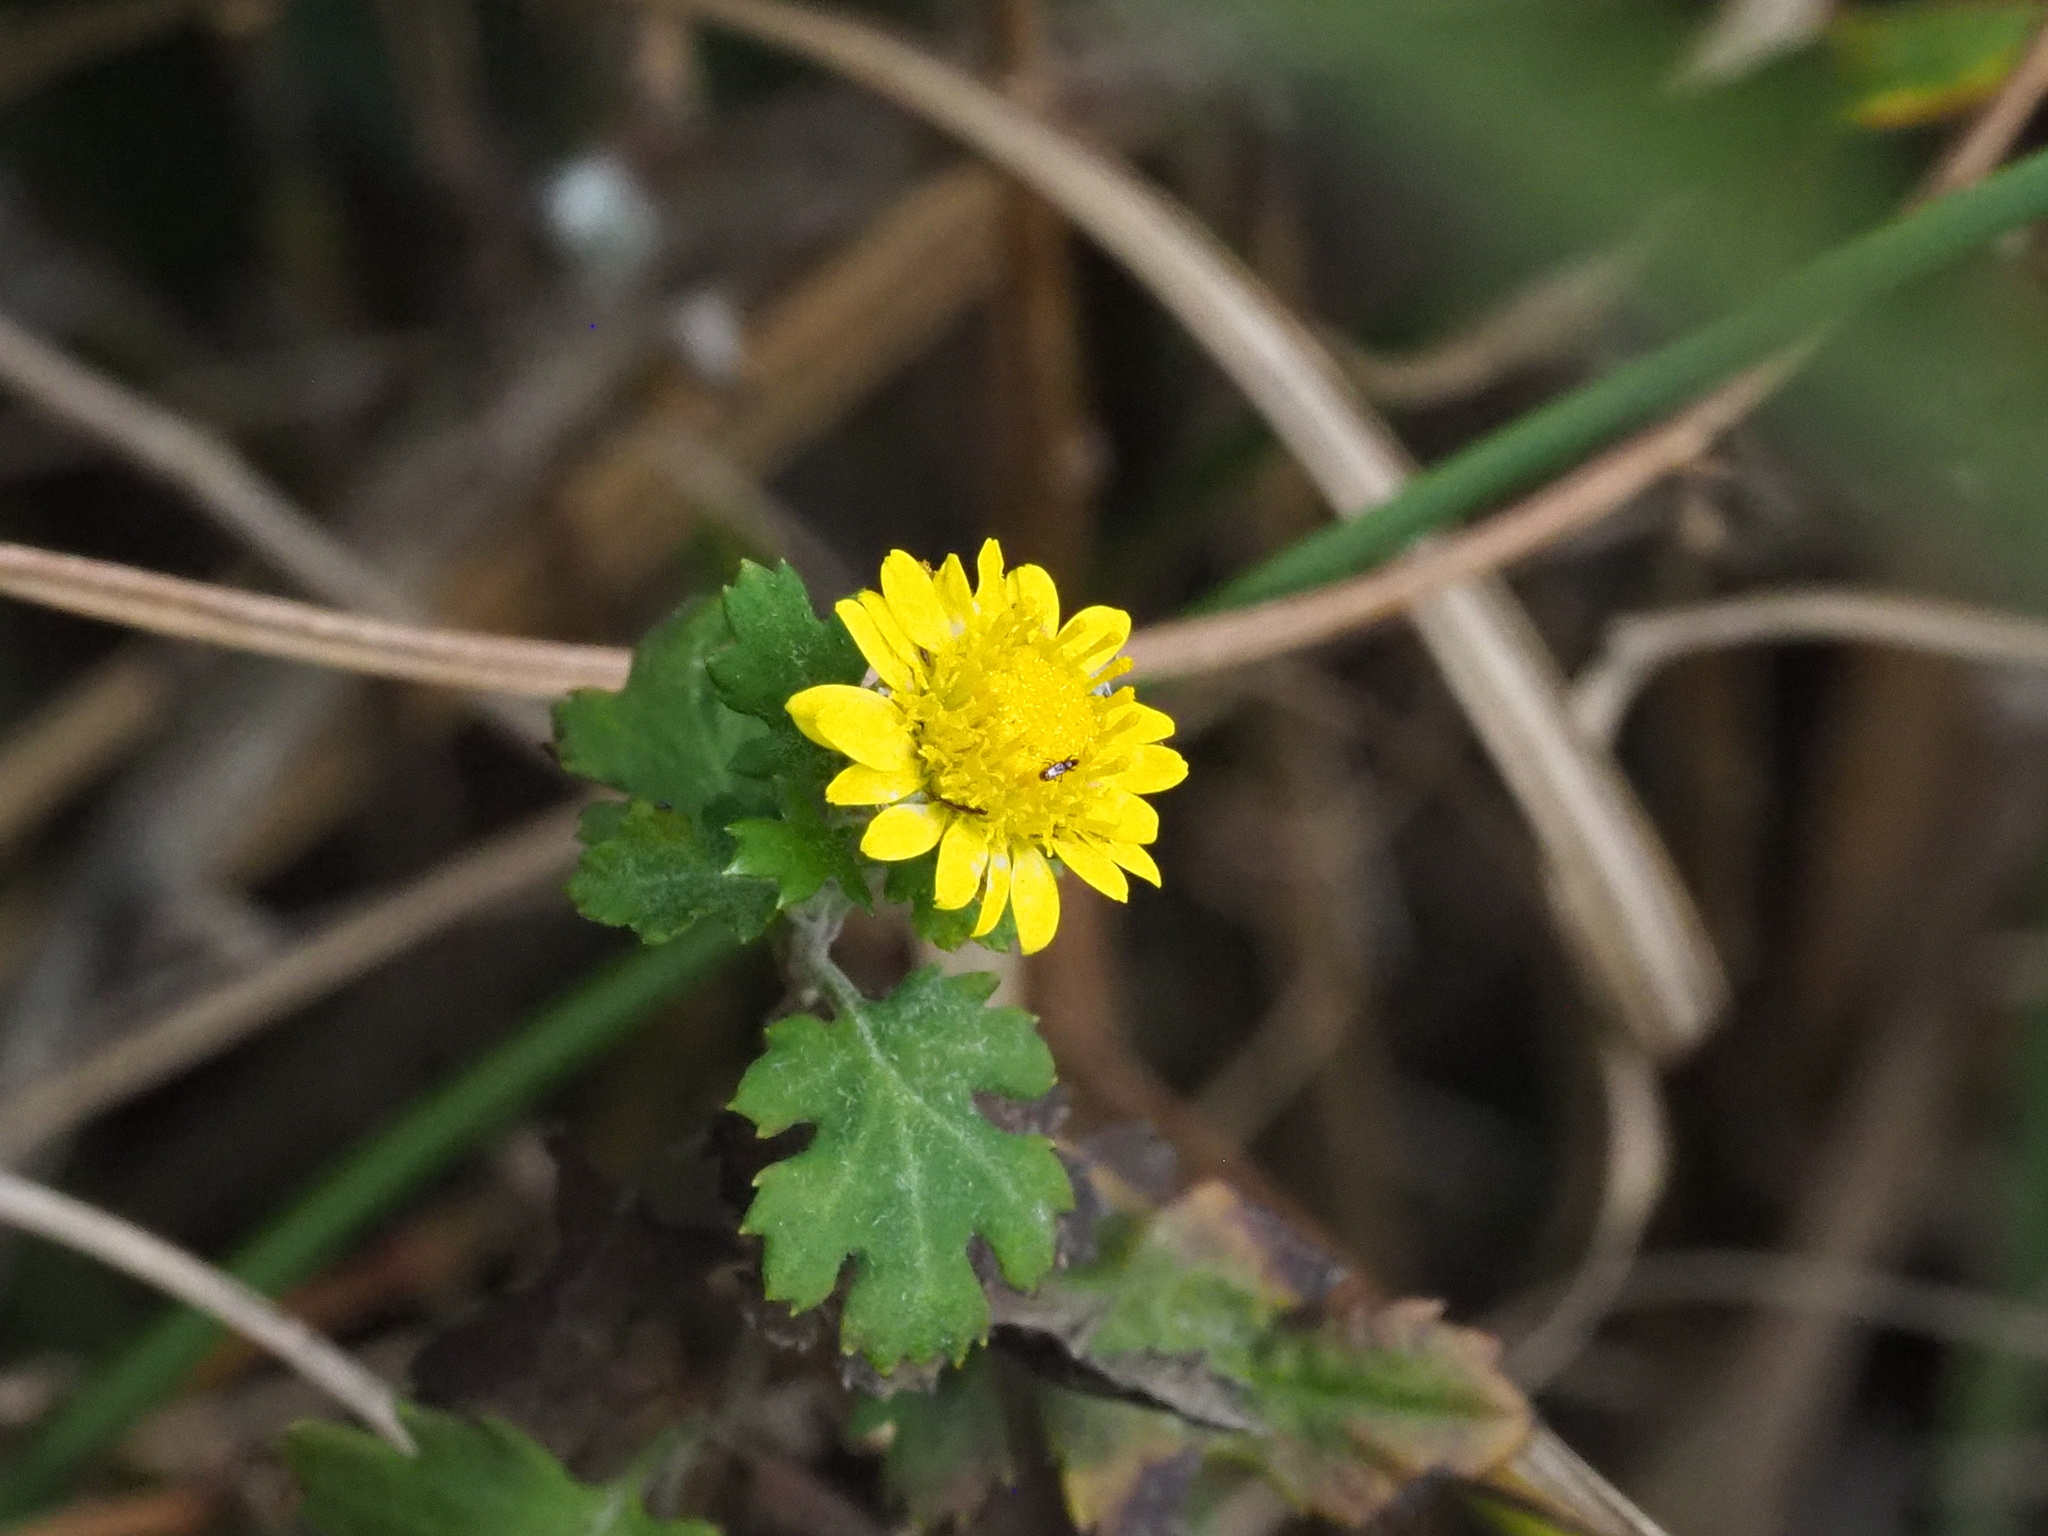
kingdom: Plantae
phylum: Tracheophyta
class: Magnoliopsida
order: Asterales
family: Asteraceae
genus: Chrysanthemum
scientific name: Chrysanthemum lavandulifolium
